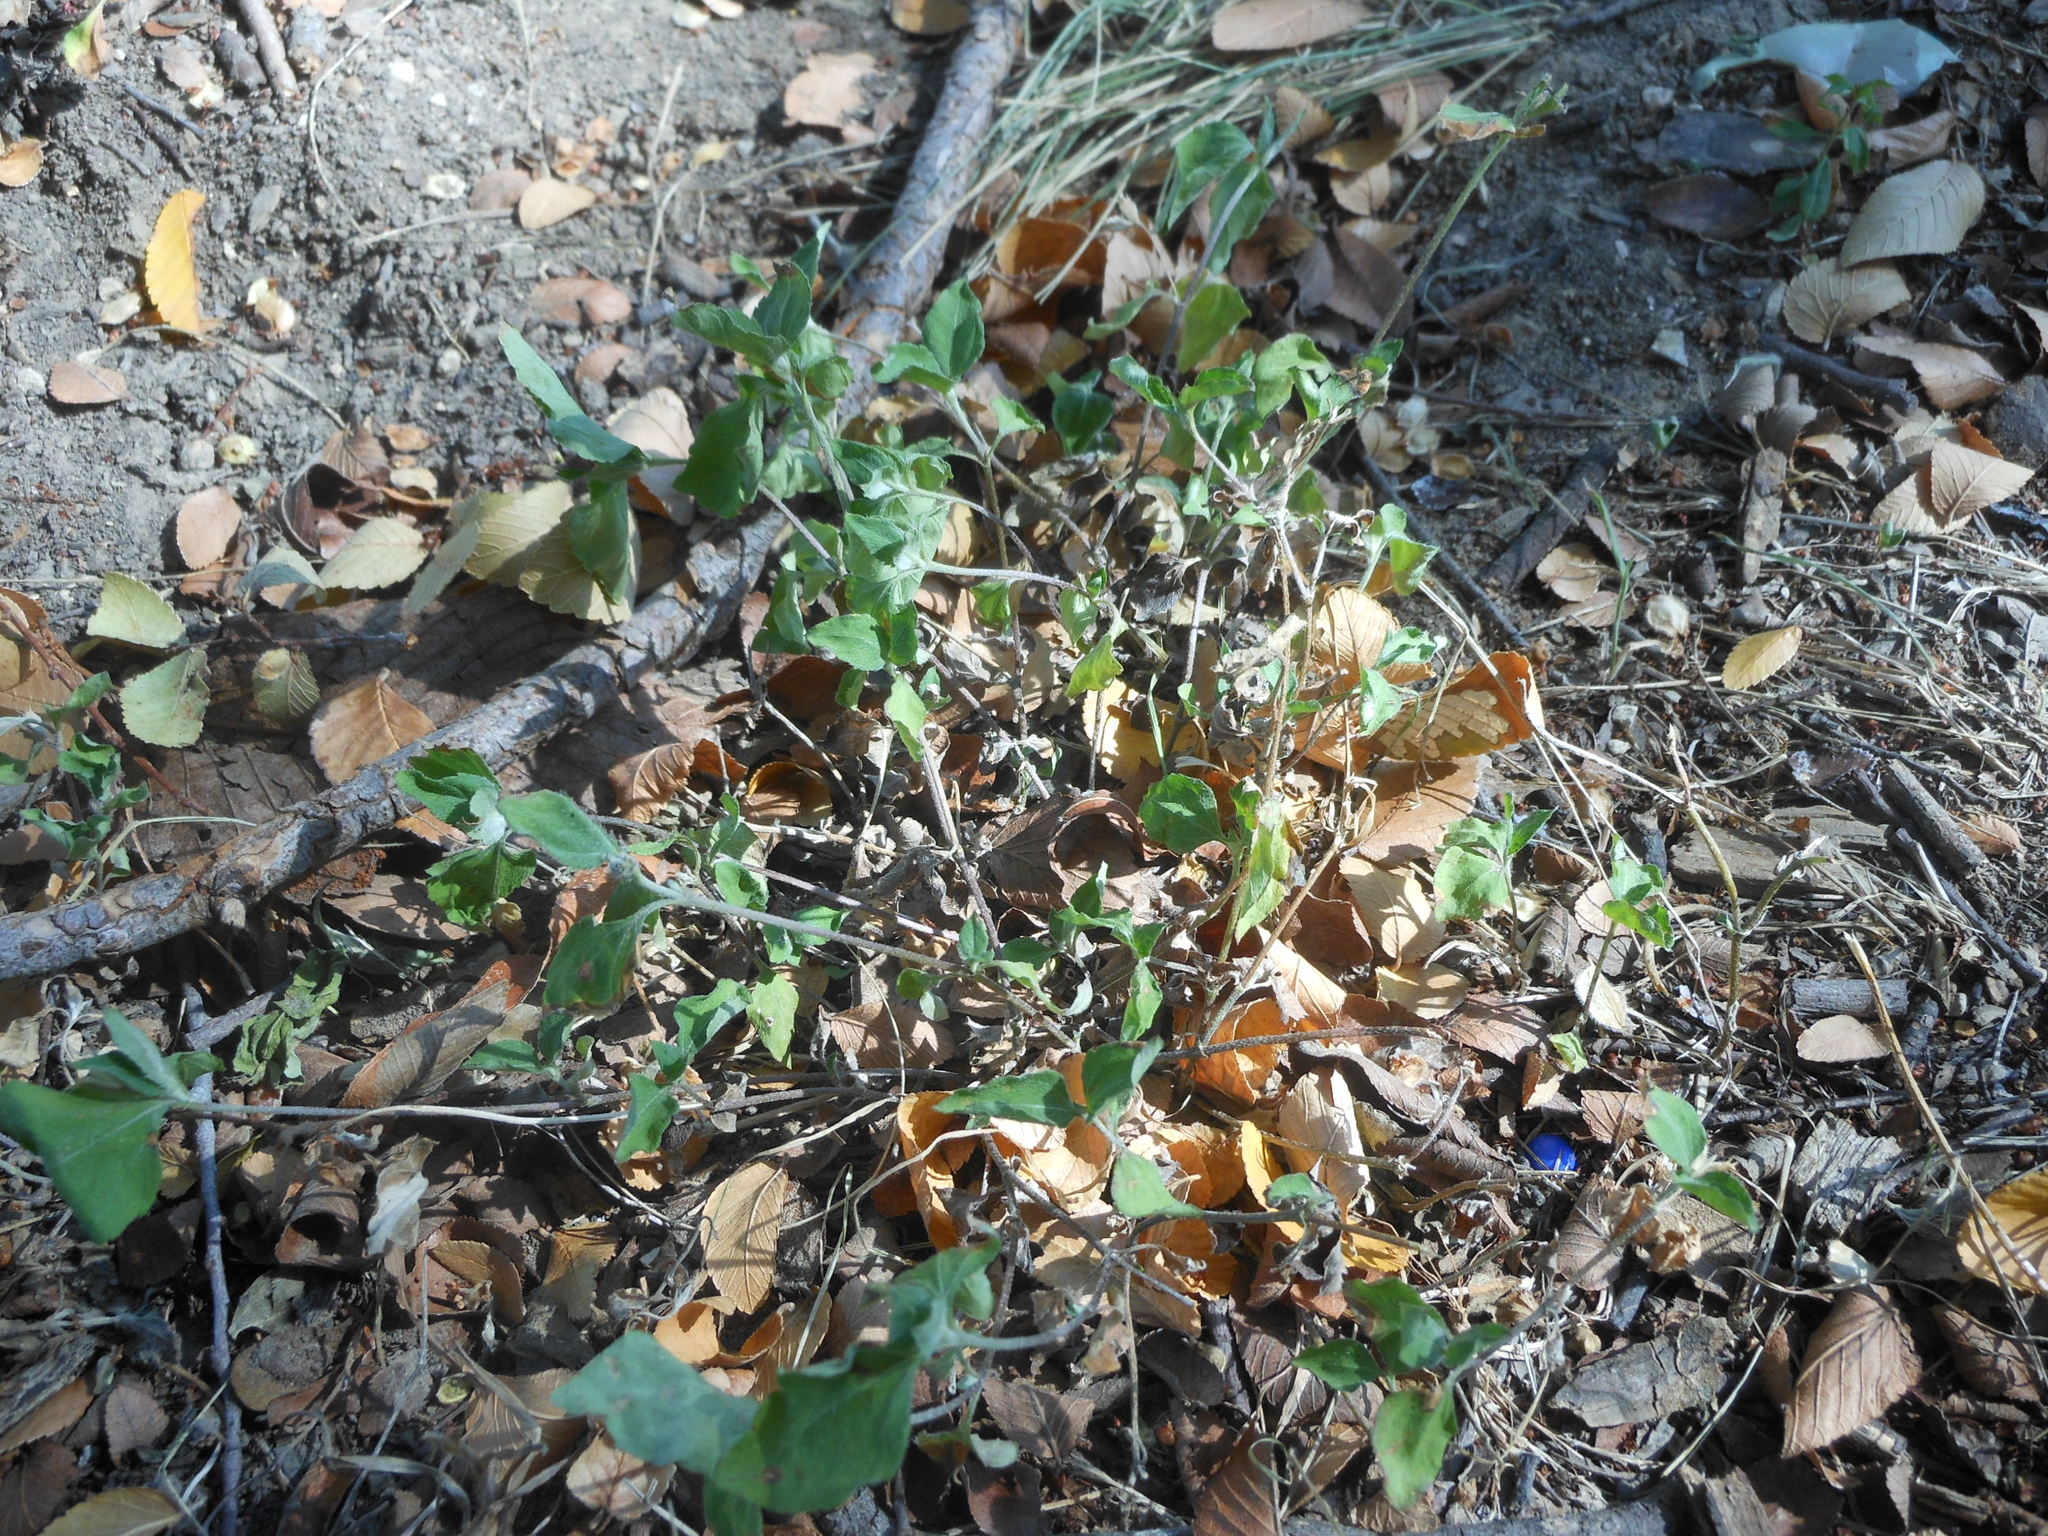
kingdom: Plantae
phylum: Tracheophyta
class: Magnoliopsida
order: Asterales
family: Asteraceae
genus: Calyptocarpus
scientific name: Calyptocarpus vialis
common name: Straggler daisy
